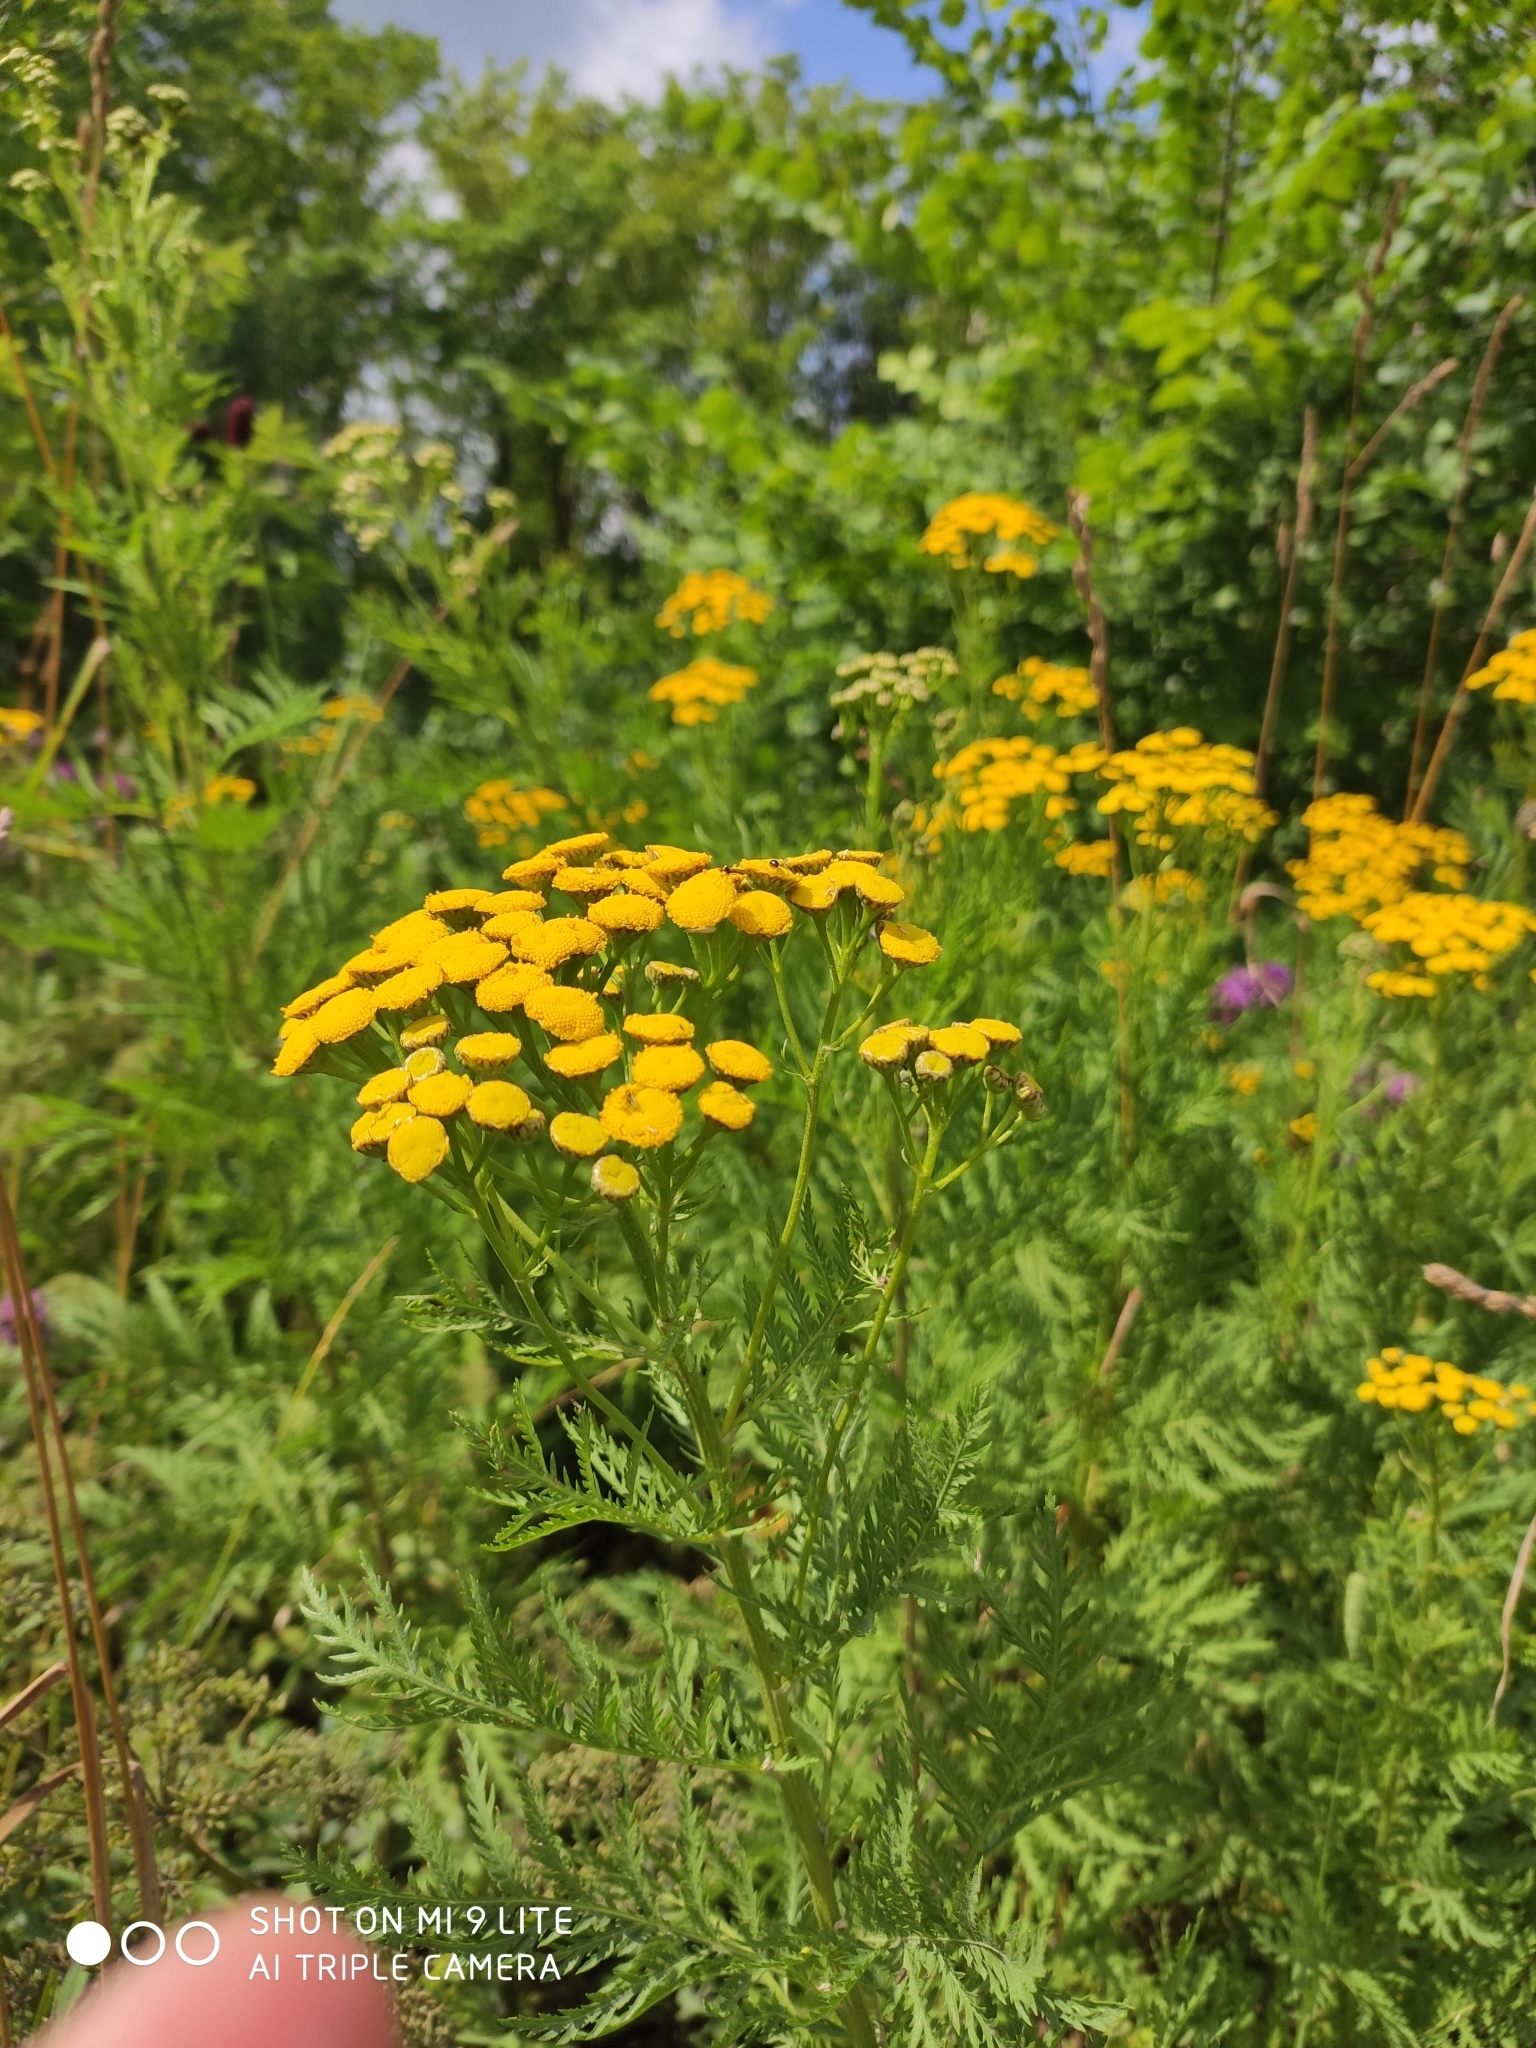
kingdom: Plantae
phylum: Tracheophyta
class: Magnoliopsida
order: Asterales
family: Asteraceae
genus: Tanacetum
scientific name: Tanacetum vulgare
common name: Common tansy
